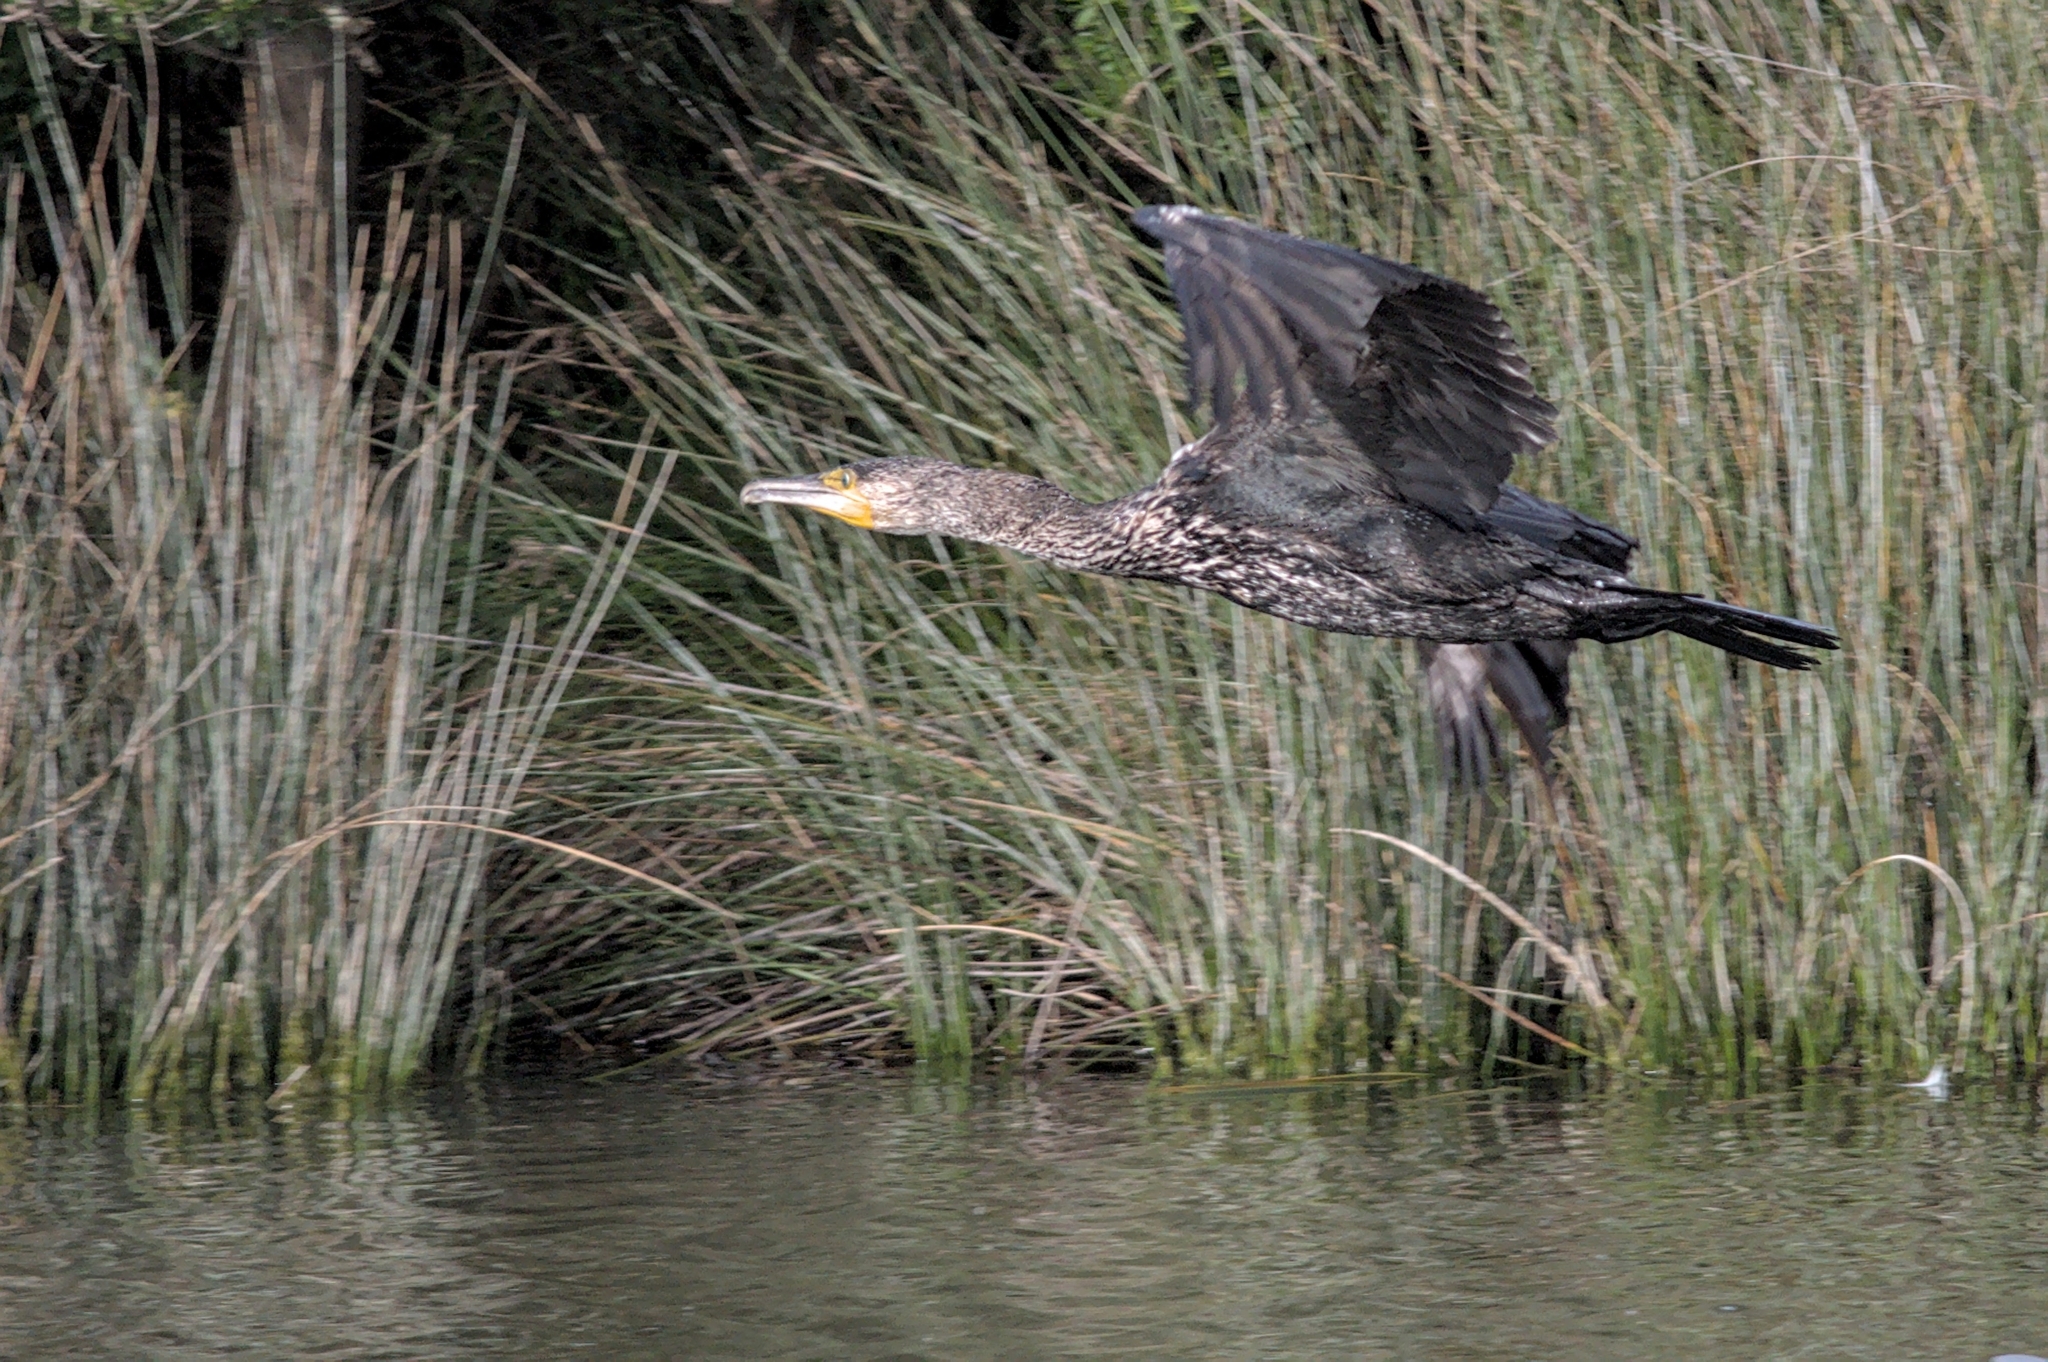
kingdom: Animalia
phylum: Chordata
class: Aves
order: Suliformes
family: Phalacrocoracidae
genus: Phalacrocorax
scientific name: Phalacrocorax carbo
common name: Great cormorant
